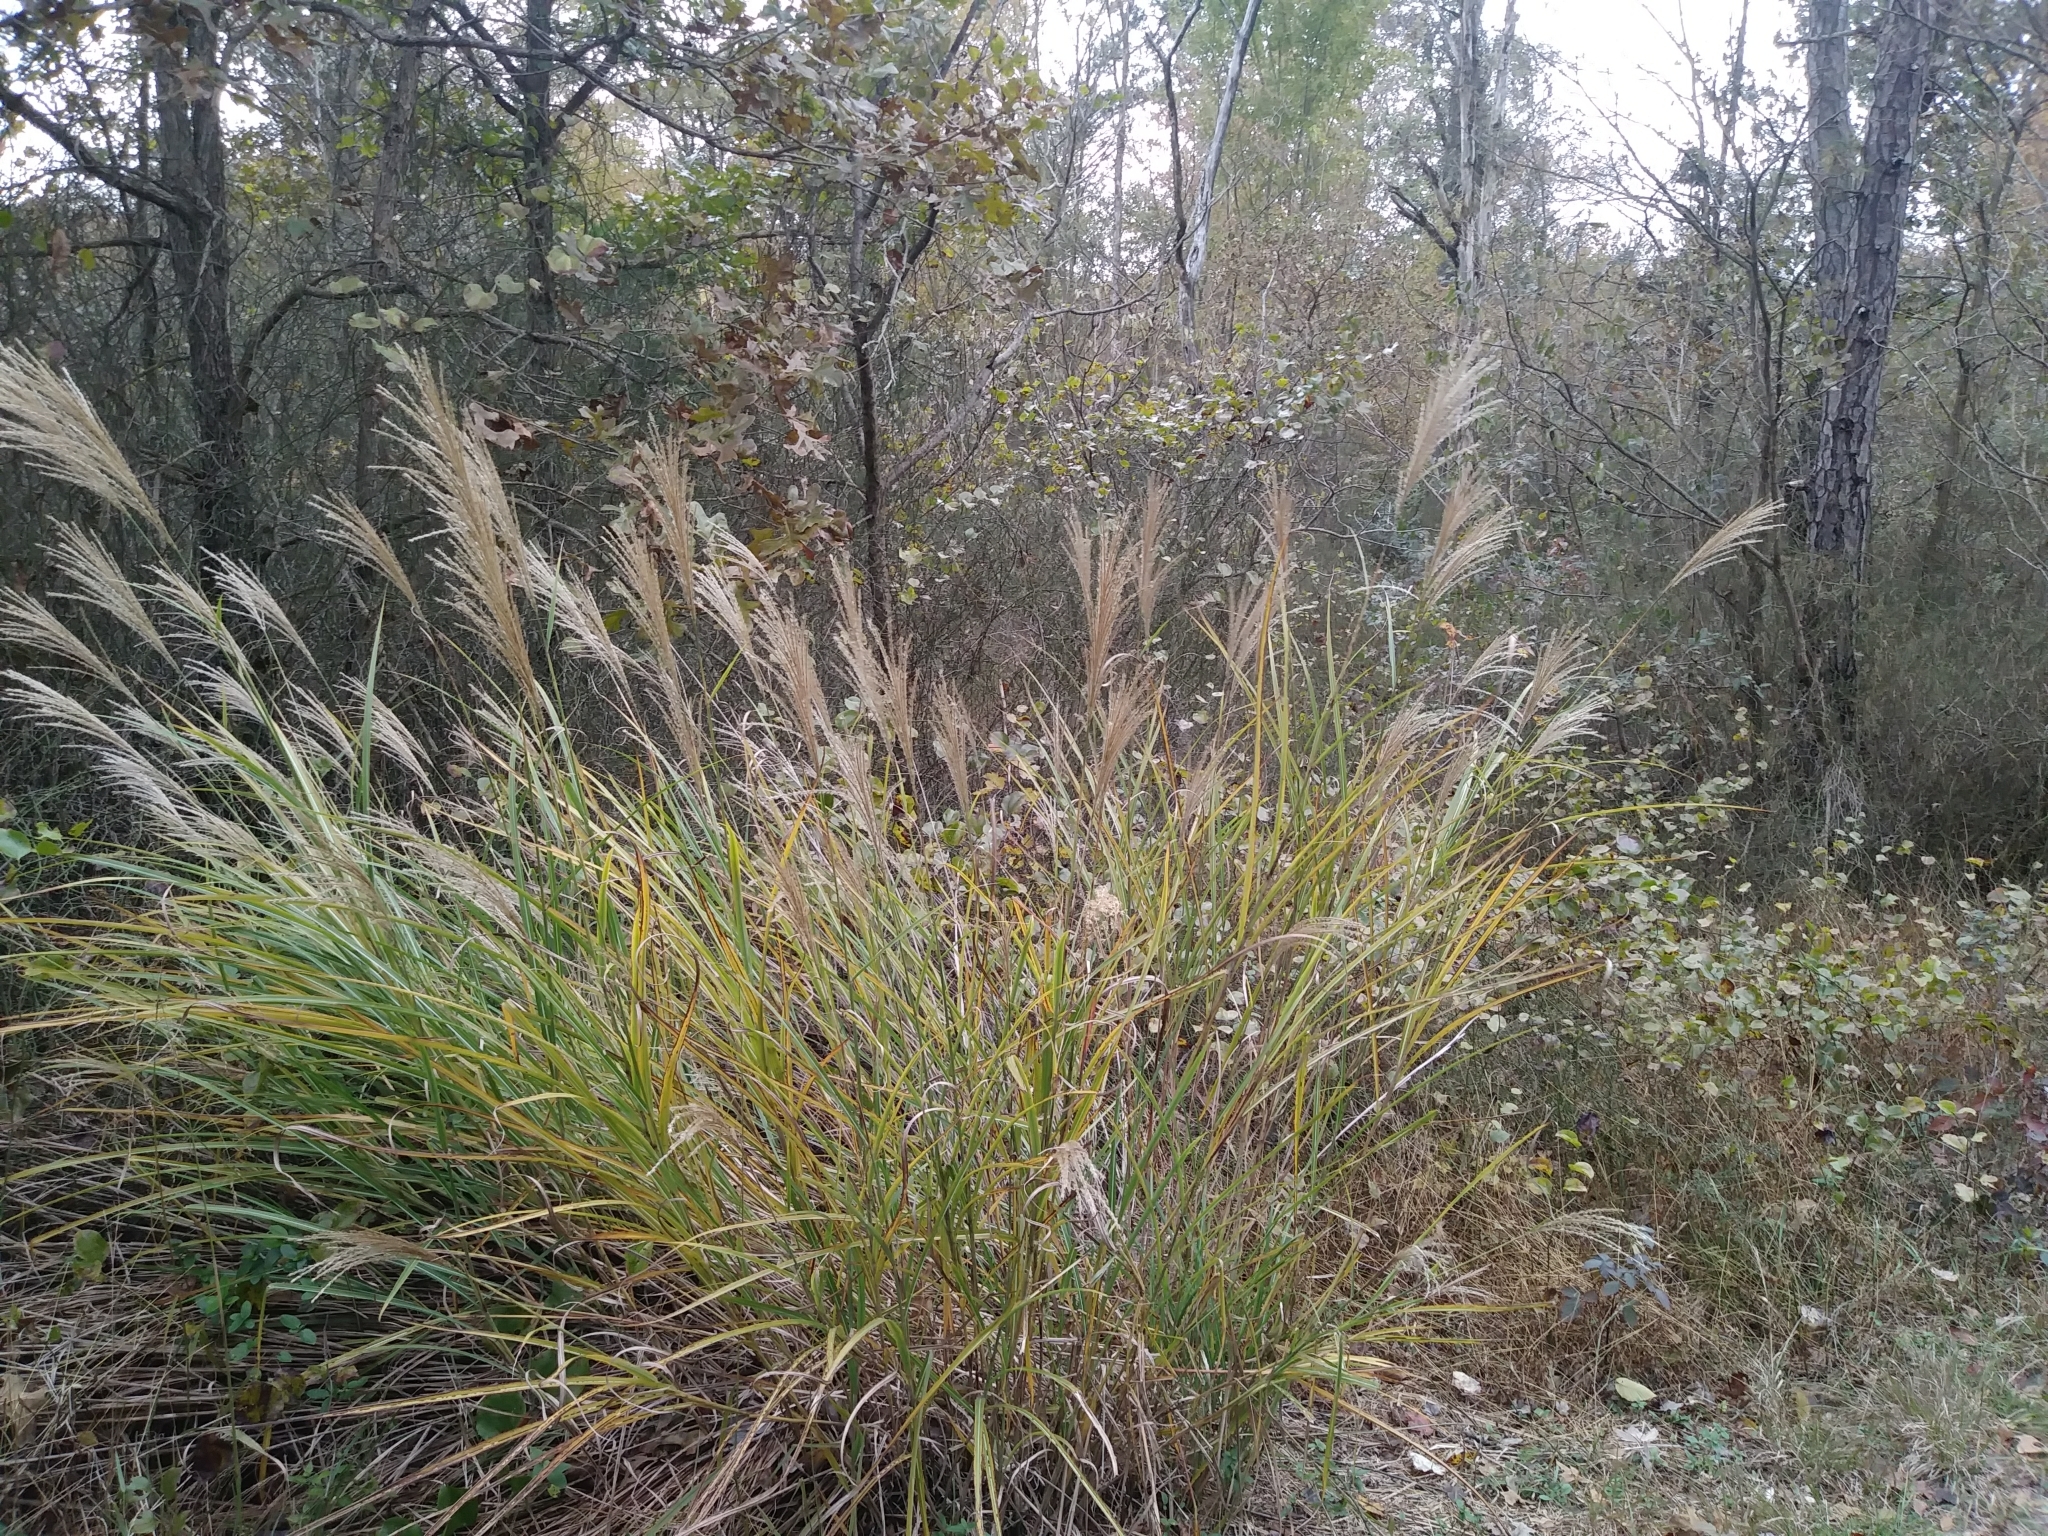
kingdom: Plantae
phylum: Tracheophyta
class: Liliopsida
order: Poales
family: Poaceae
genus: Miscanthus
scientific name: Miscanthus sinensis
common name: Chinese silvergrass
